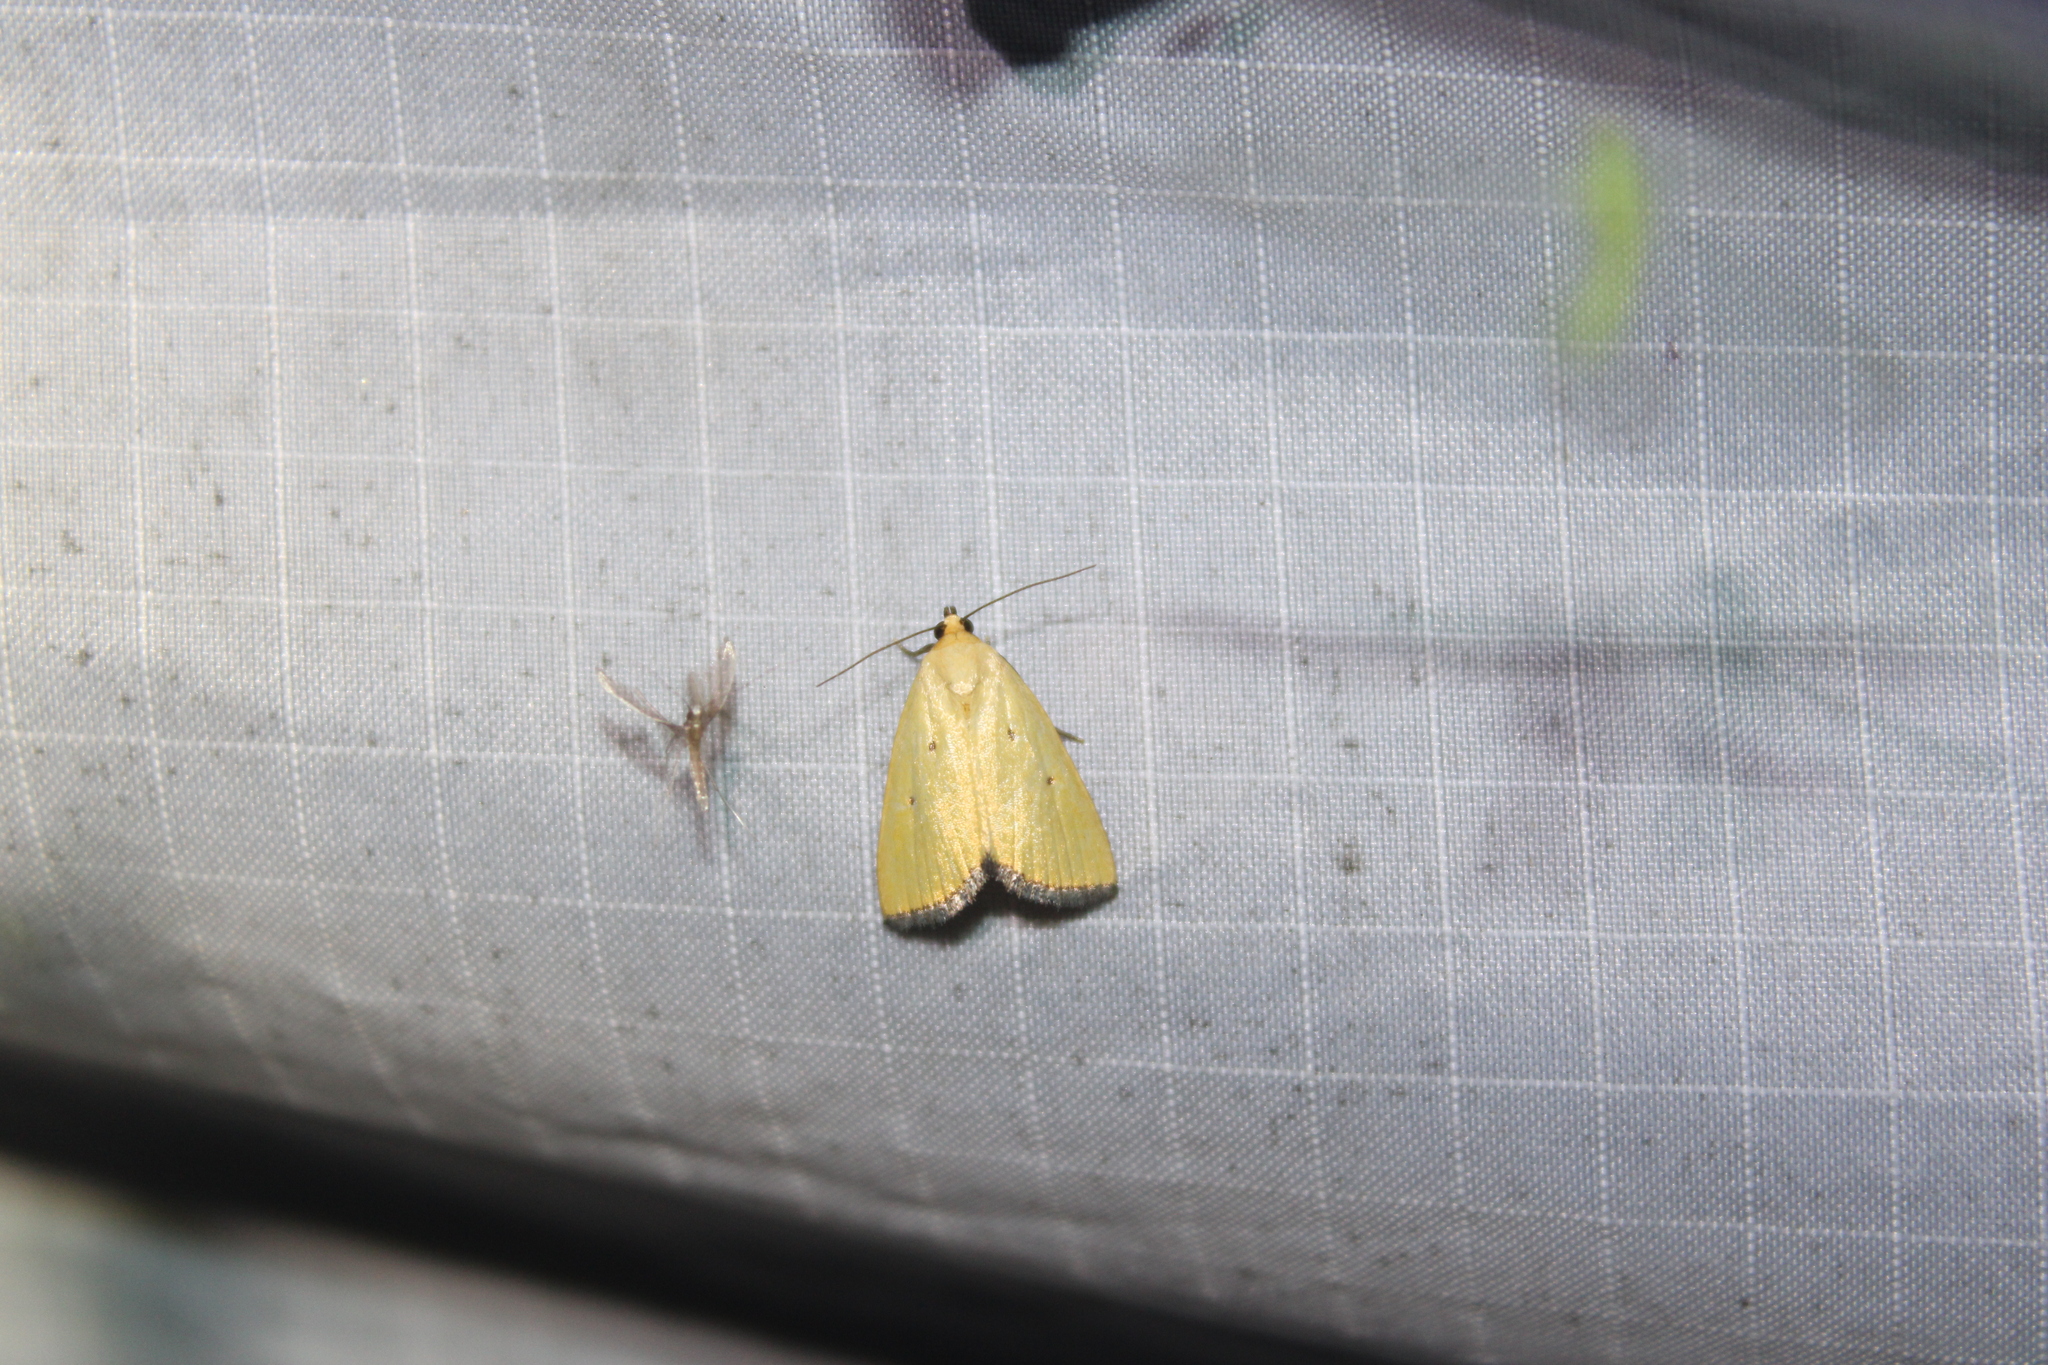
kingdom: Animalia
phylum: Arthropoda
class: Insecta
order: Lepidoptera
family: Noctuidae
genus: Marimatha
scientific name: Marimatha nigrofimbria
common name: Black-bordered lemon moth
